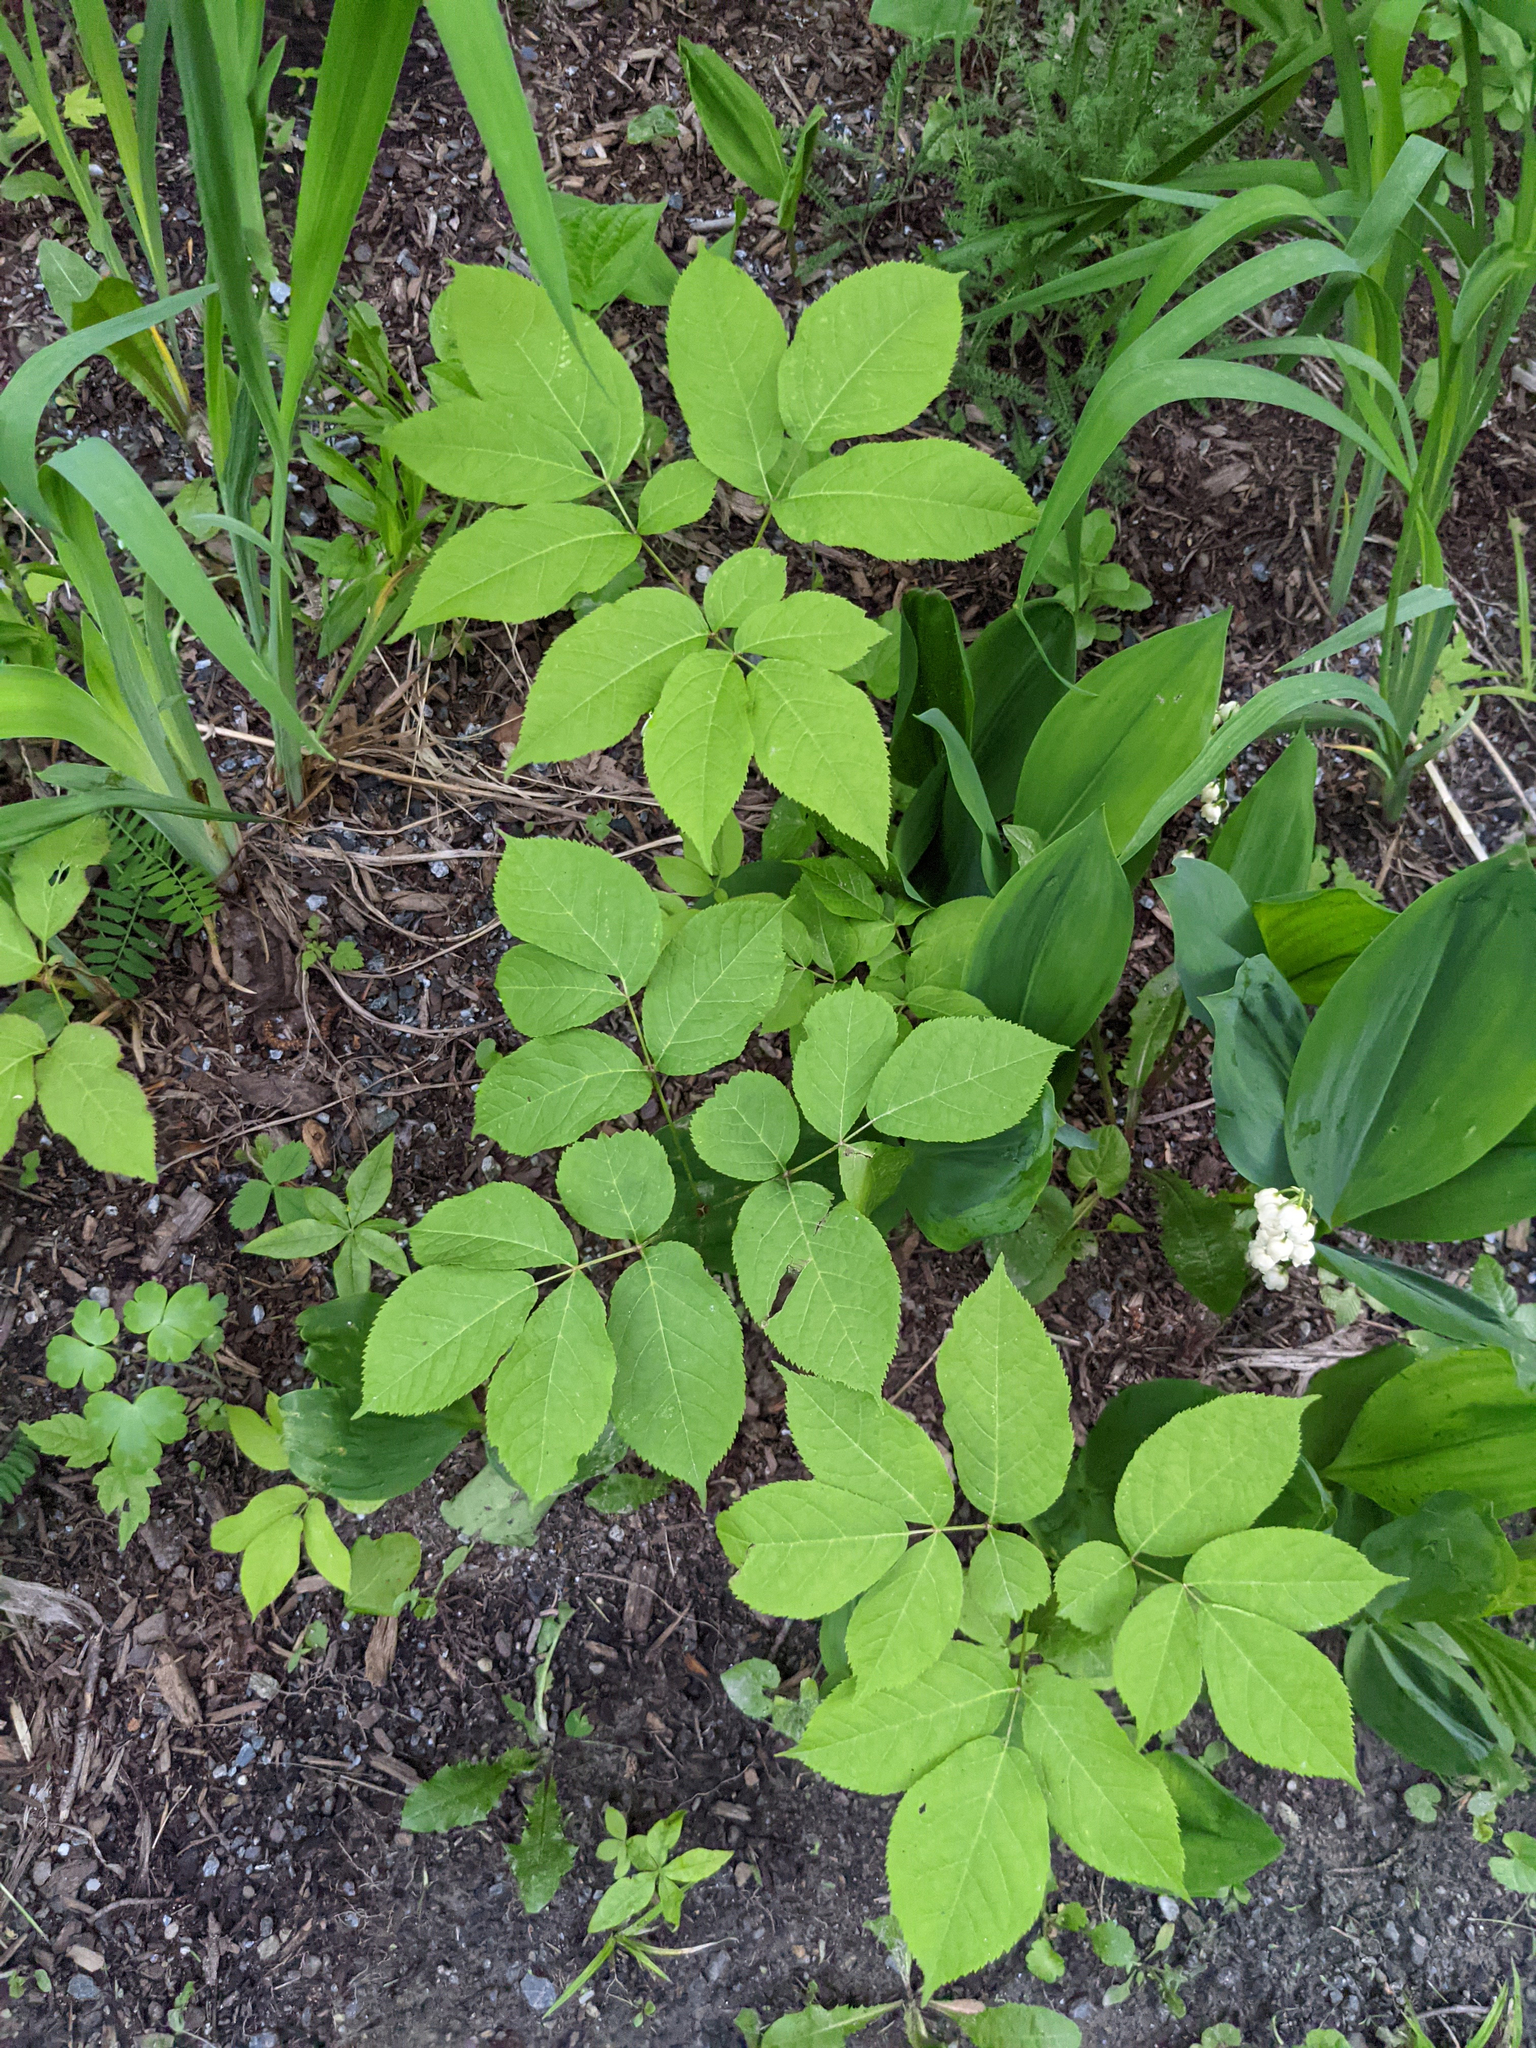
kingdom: Plantae
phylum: Tracheophyta
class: Magnoliopsida
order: Apiales
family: Araliaceae
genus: Aralia
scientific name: Aralia nudicaulis
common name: Wild sarsaparilla
